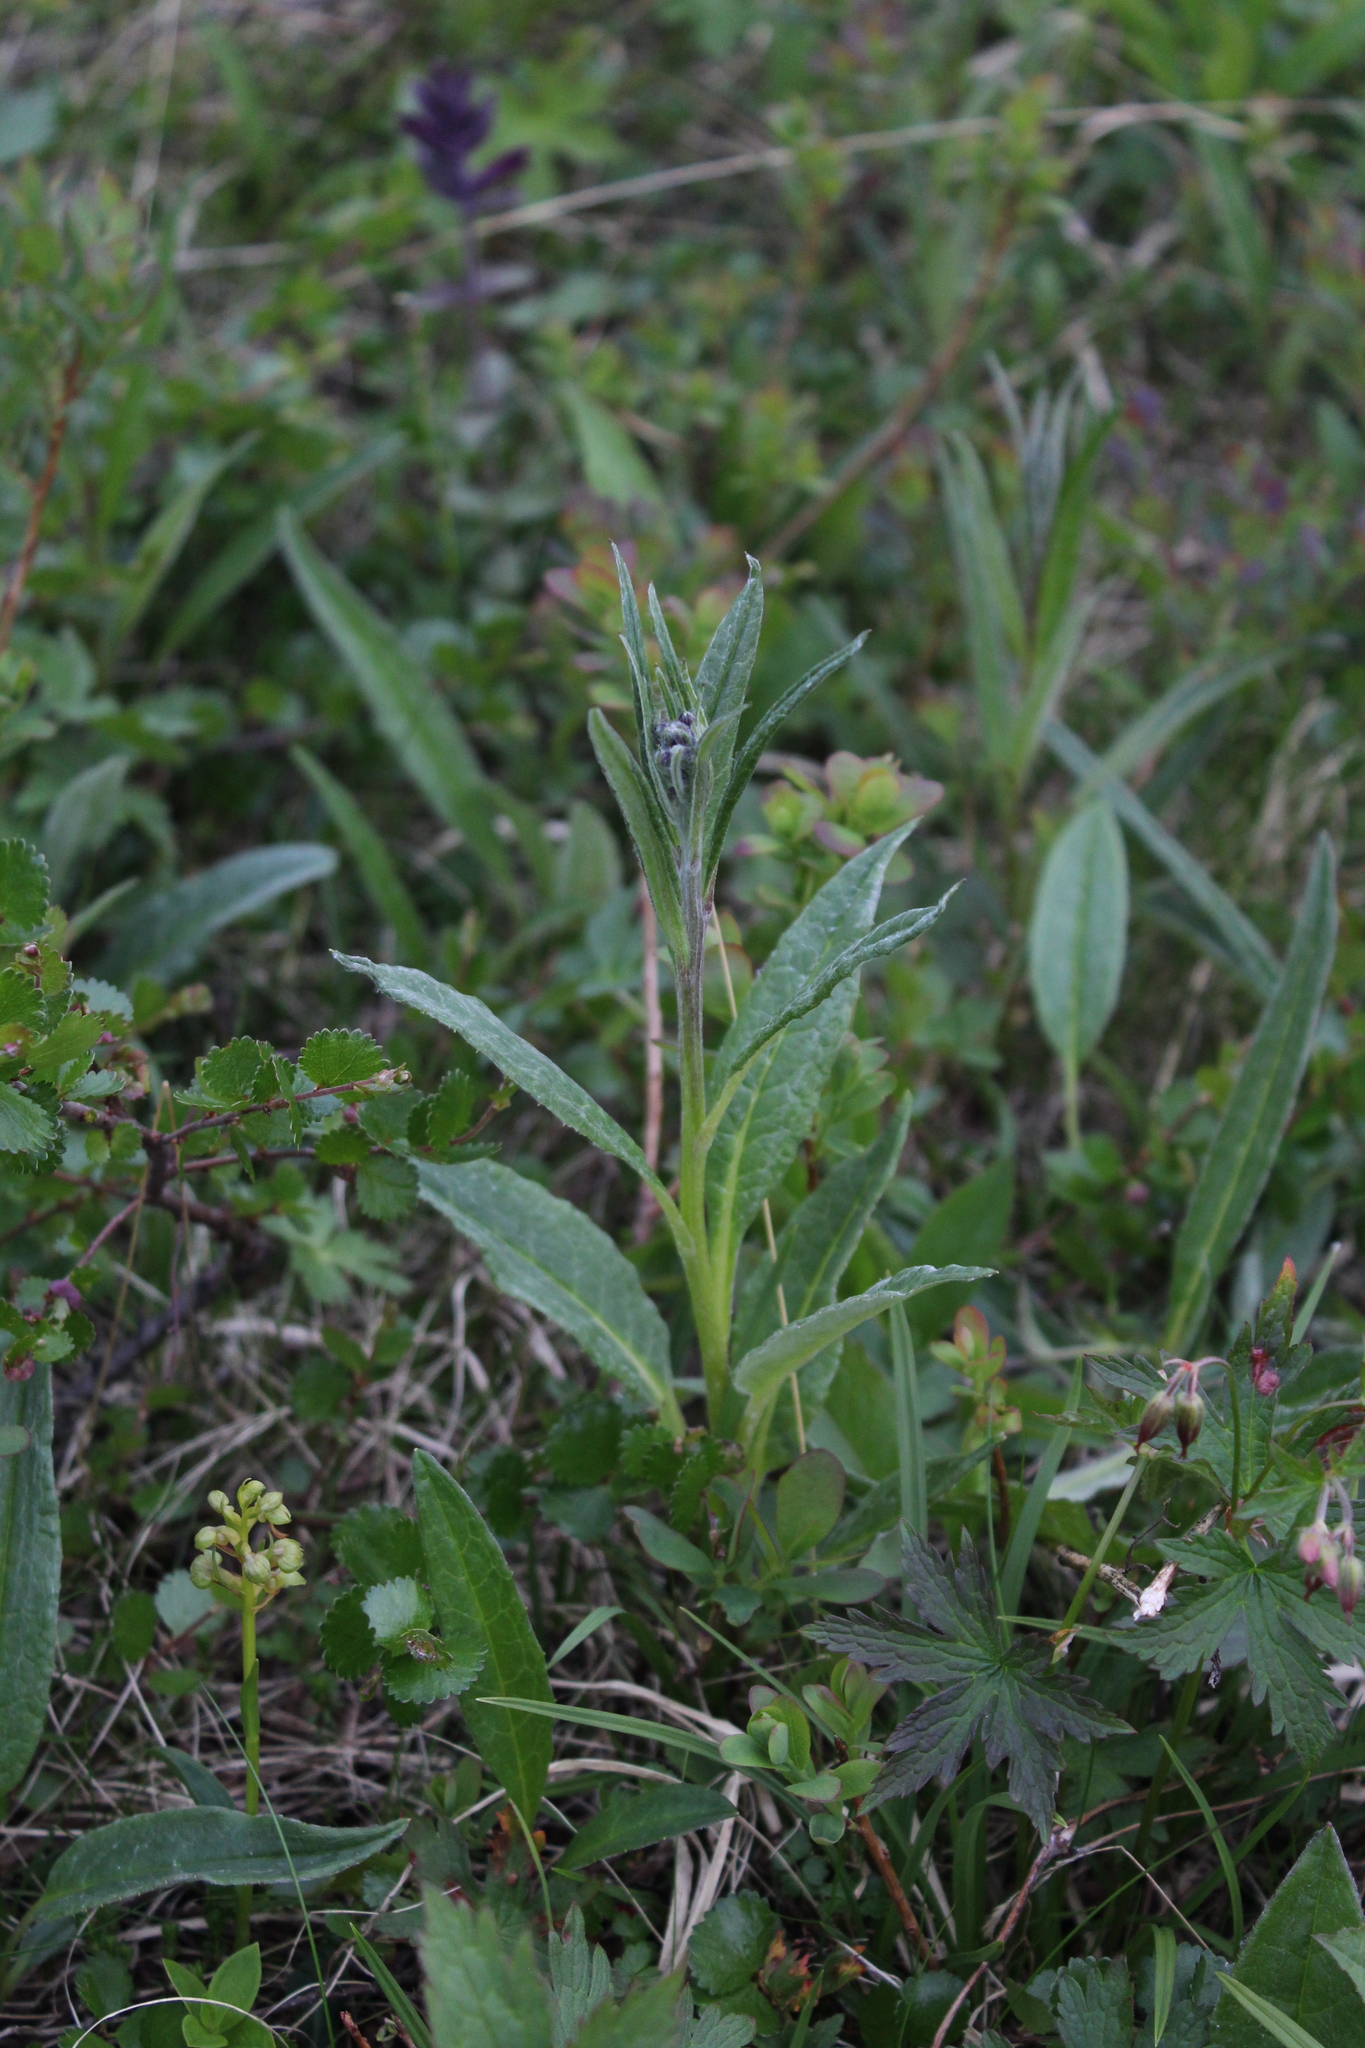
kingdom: Plantae
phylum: Tracheophyta
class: Magnoliopsida
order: Asterales
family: Asteraceae
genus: Saussurea
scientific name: Saussurea alpina
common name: Alpine saw-wort
